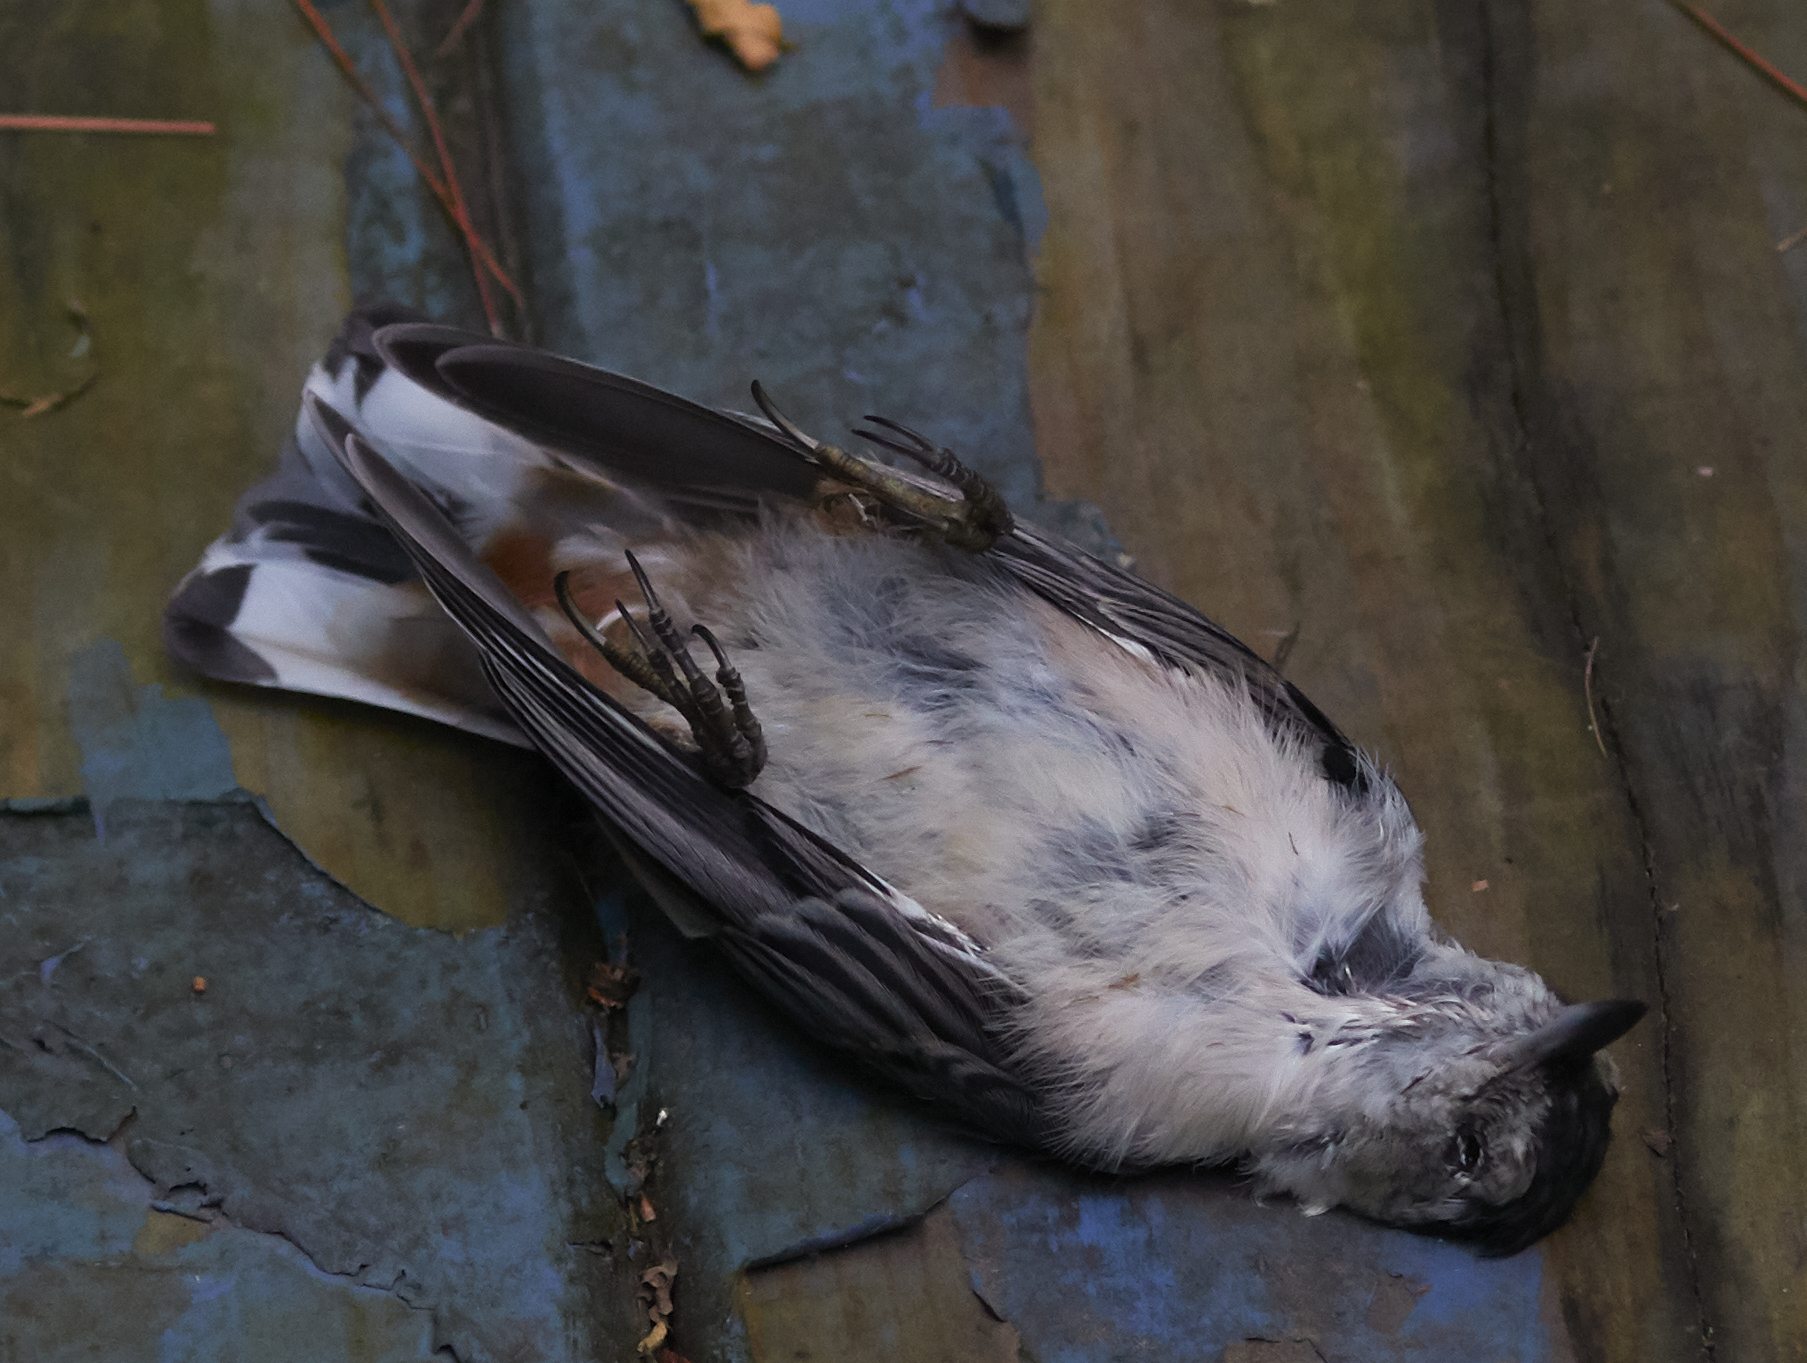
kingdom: Animalia
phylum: Chordata
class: Aves
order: Passeriformes
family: Sittidae
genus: Sitta
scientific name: Sitta carolinensis
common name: White-breasted nuthatch
